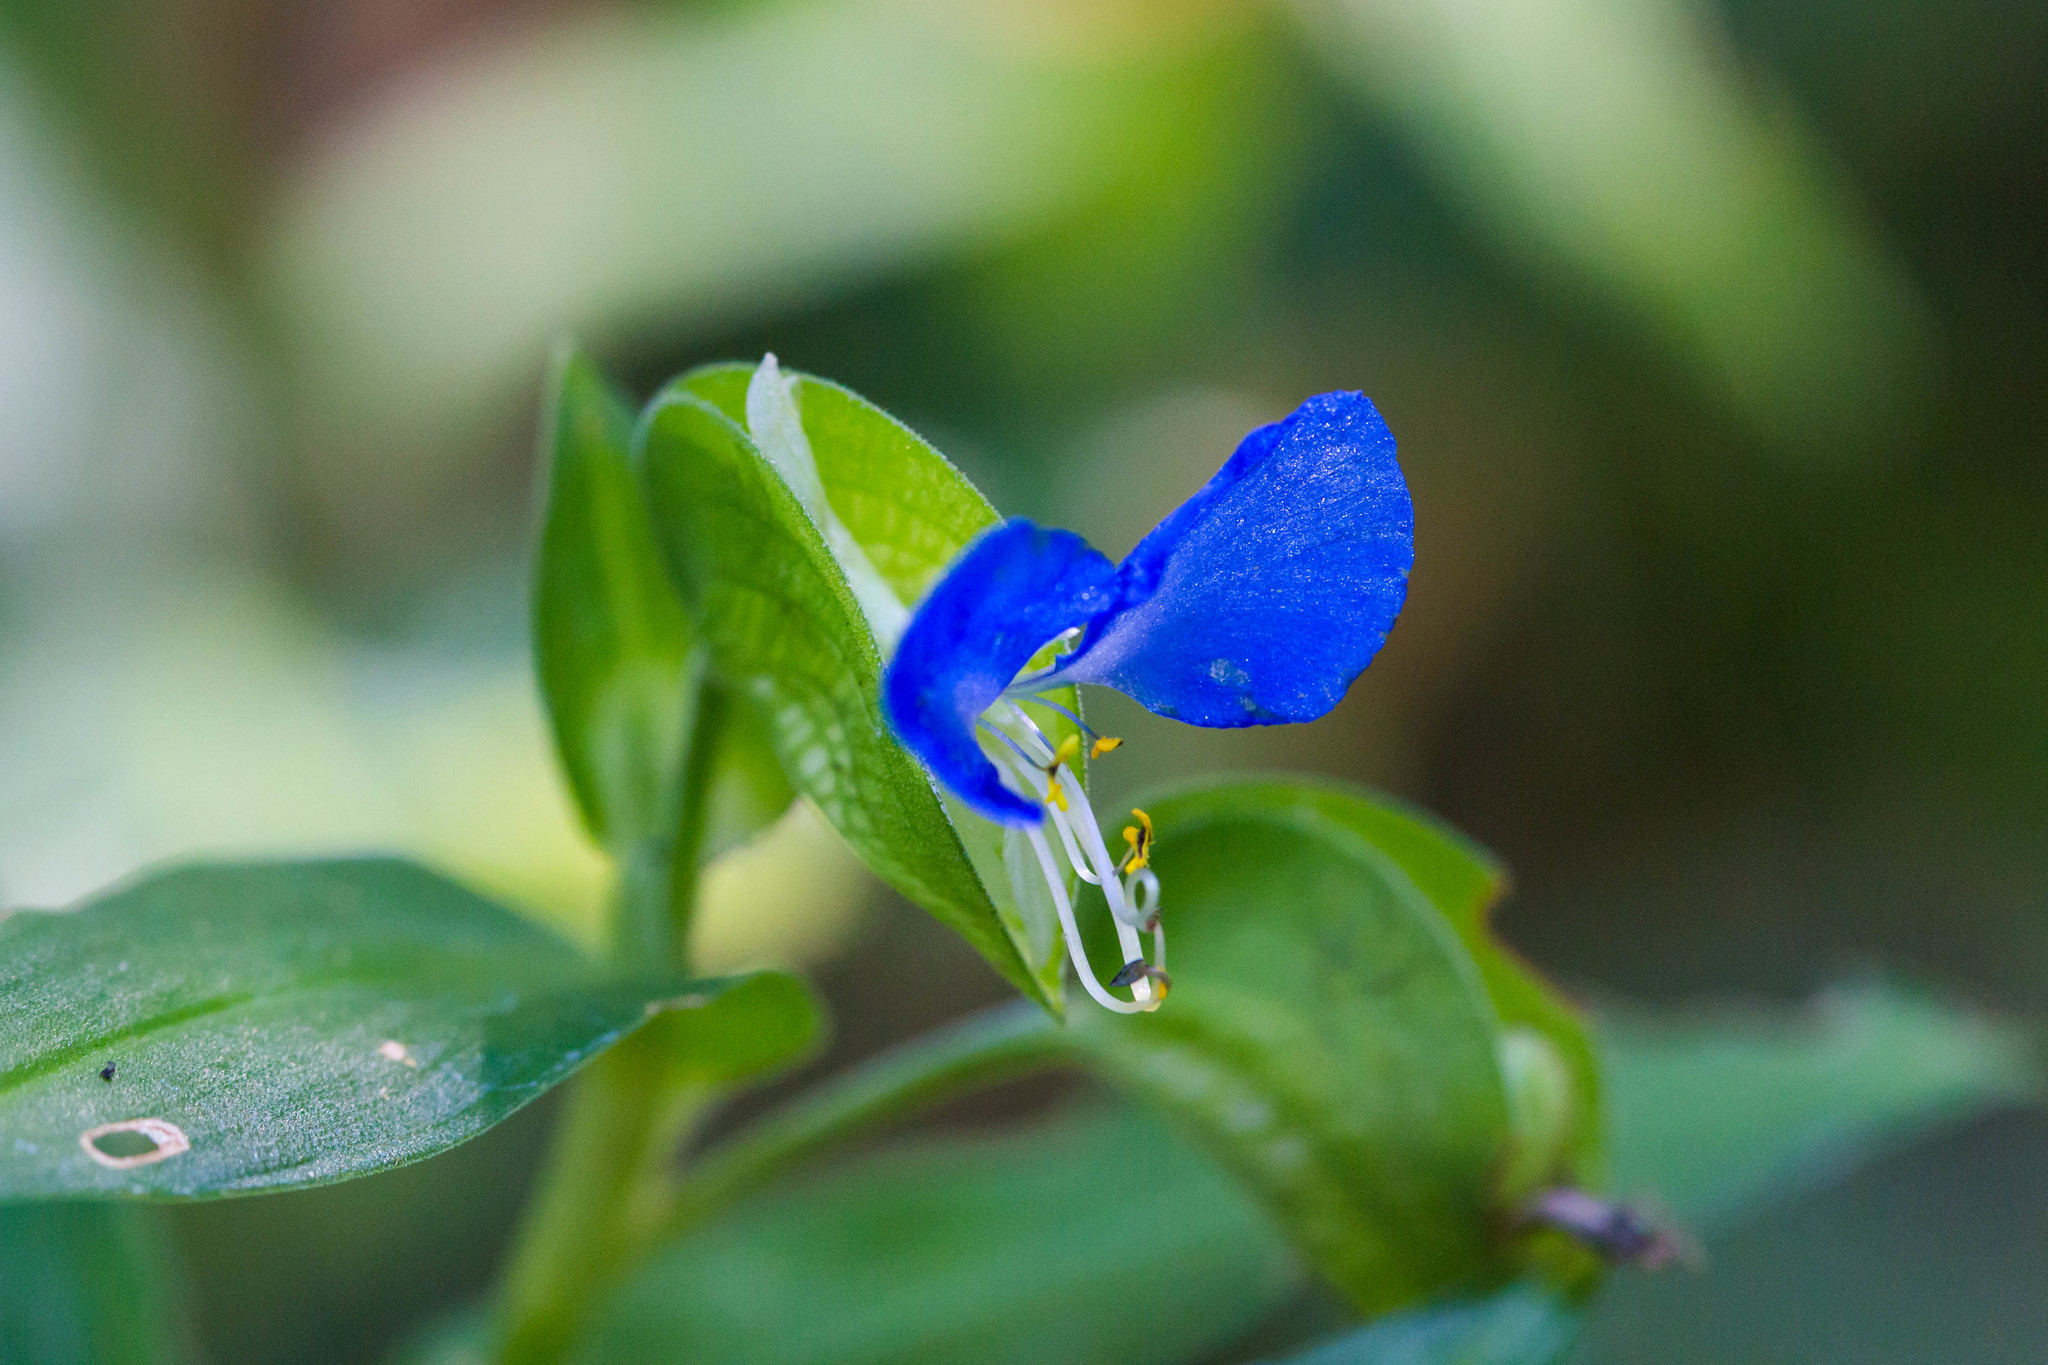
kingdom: Plantae
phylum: Tracheophyta
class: Liliopsida
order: Commelinales
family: Commelinaceae
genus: Commelina
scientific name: Commelina communis
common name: Asiatic dayflower
